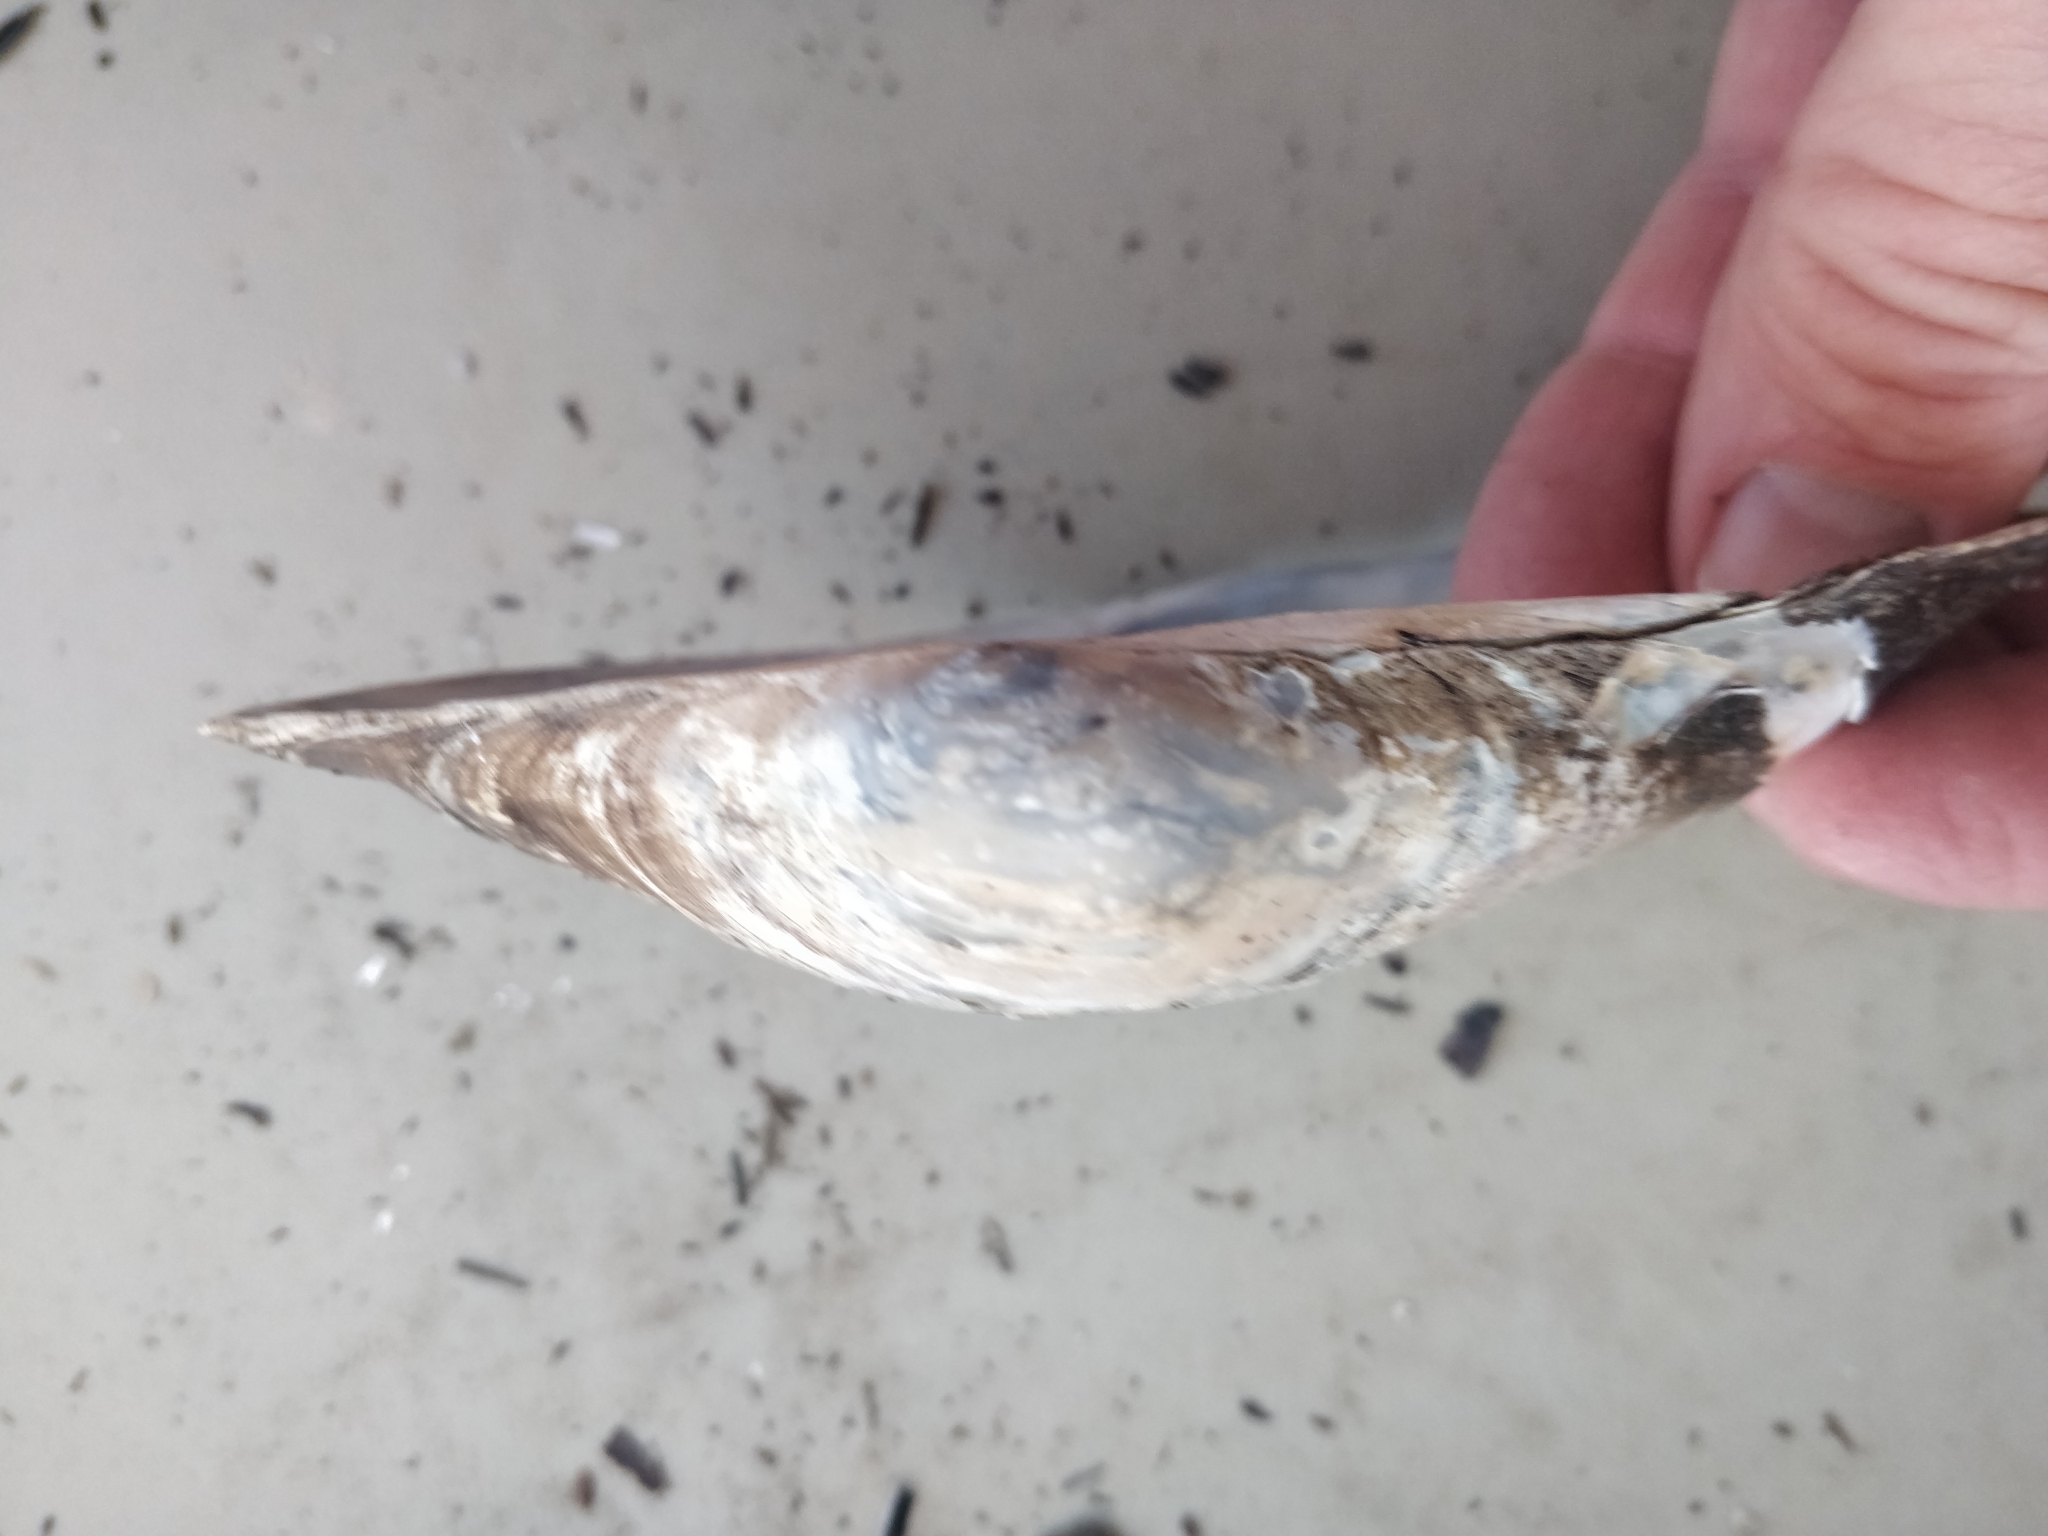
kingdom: Animalia
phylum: Mollusca
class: Bivalvia
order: Unionida
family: Unionidae
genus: Pyganodon
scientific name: Pyganodon grandis
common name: Giant floater
